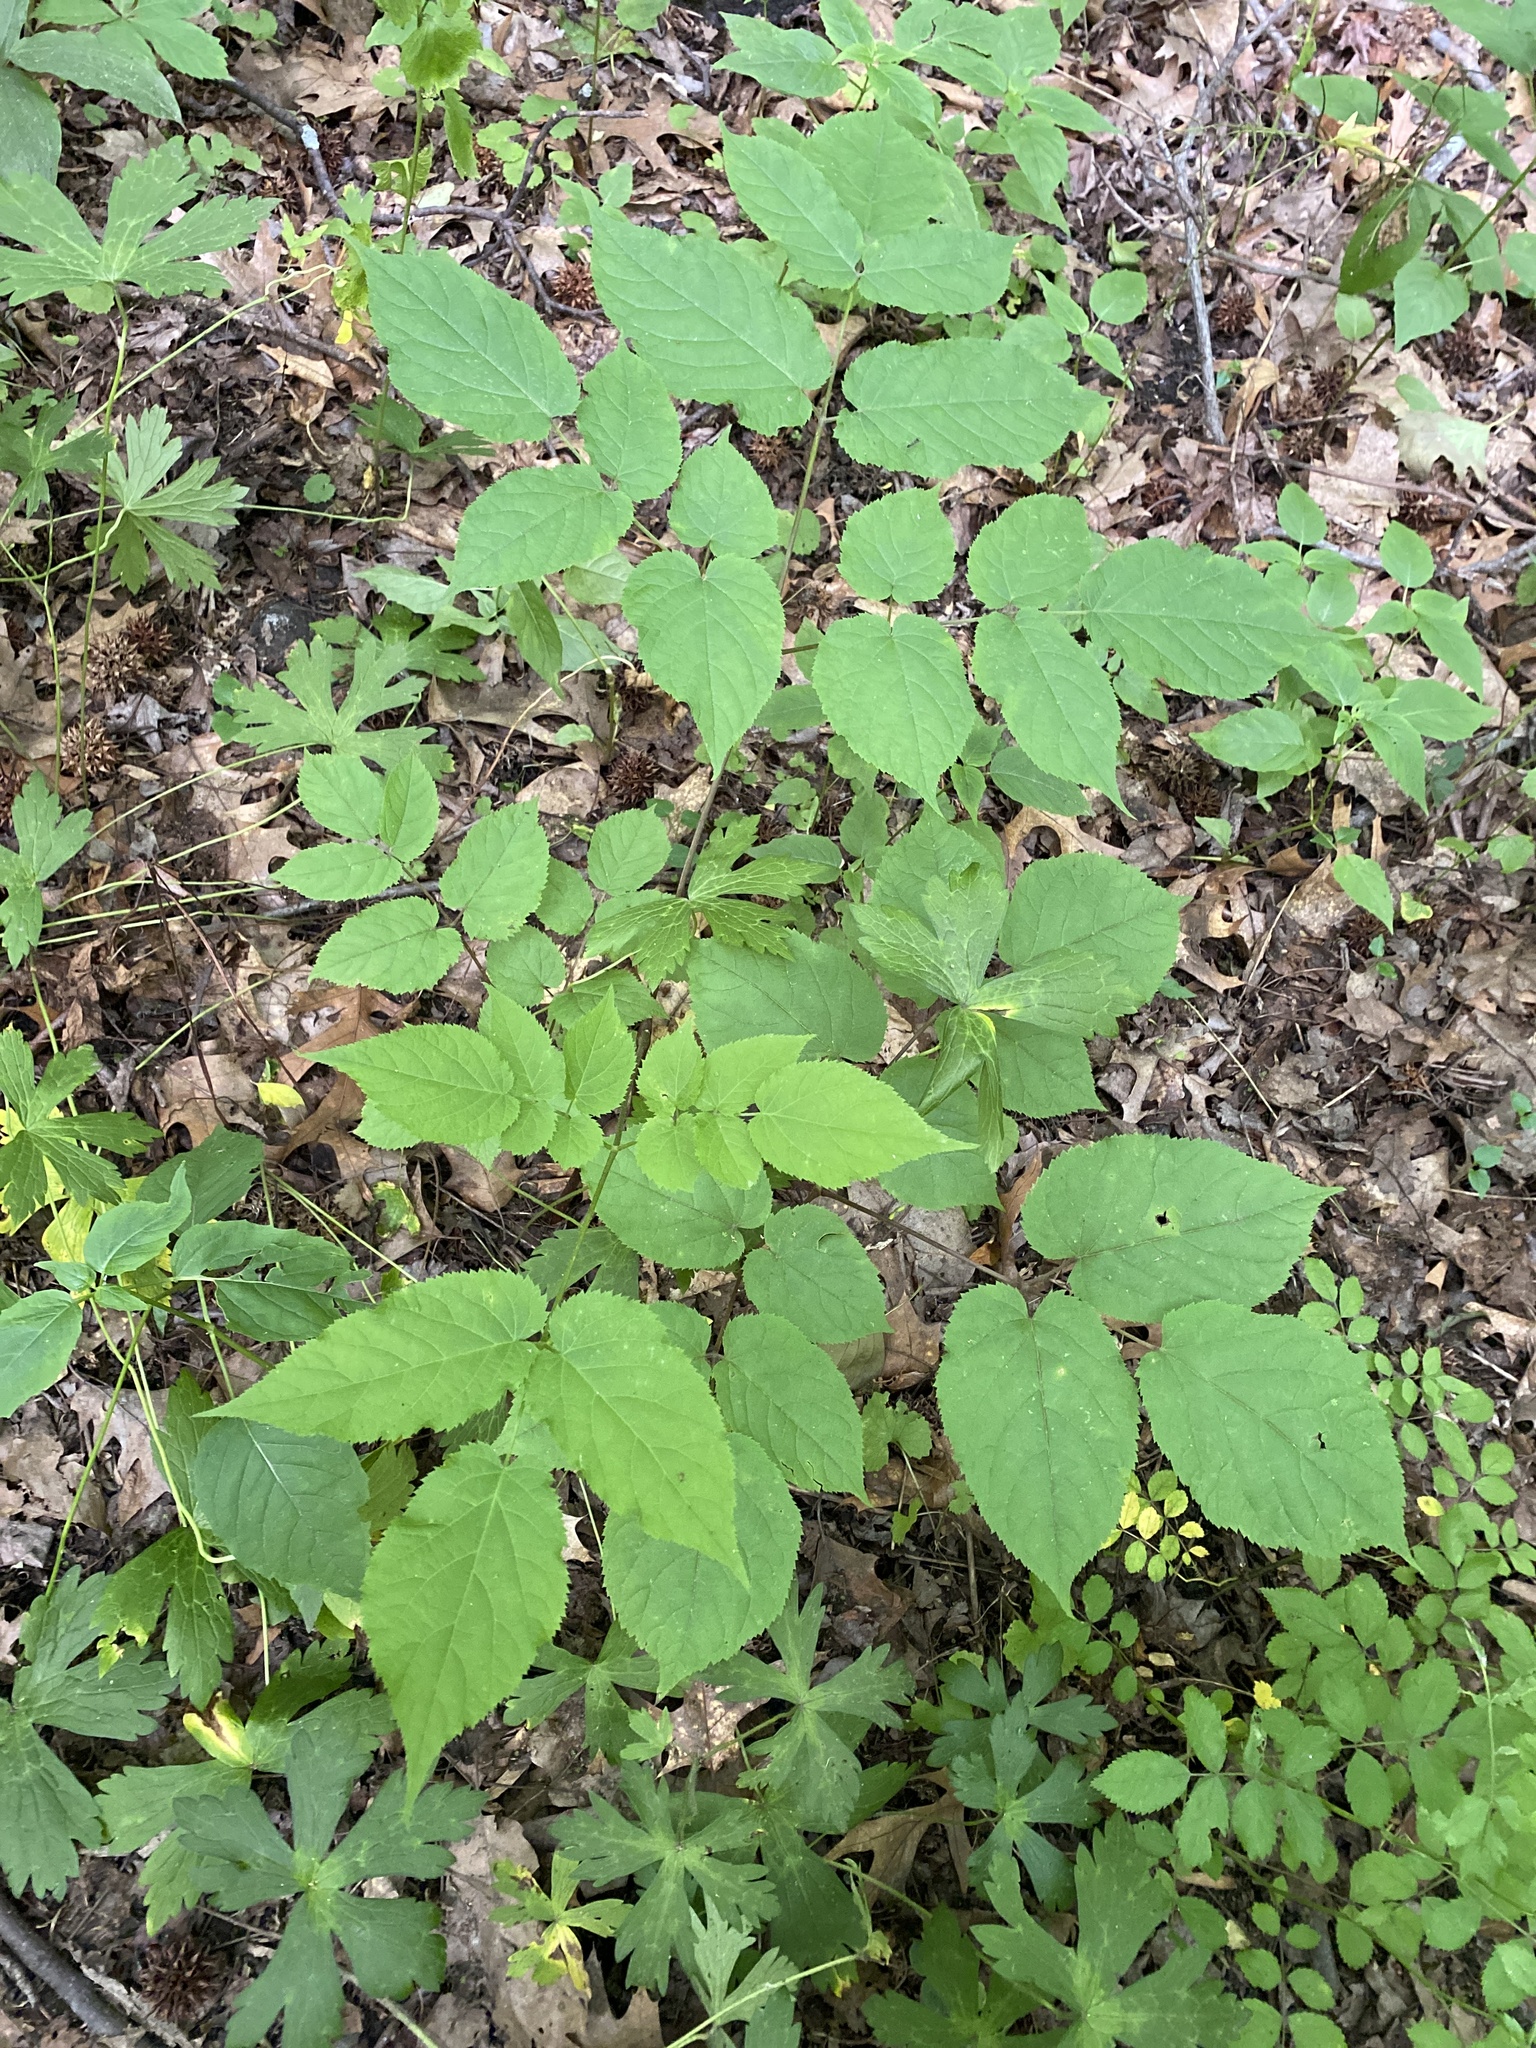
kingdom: Plantae
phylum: Tracheophyta
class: Magnoliopsida
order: Apiales
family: Araliaceae
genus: Aralia
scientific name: Aralia racemosa
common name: American-spikenard
